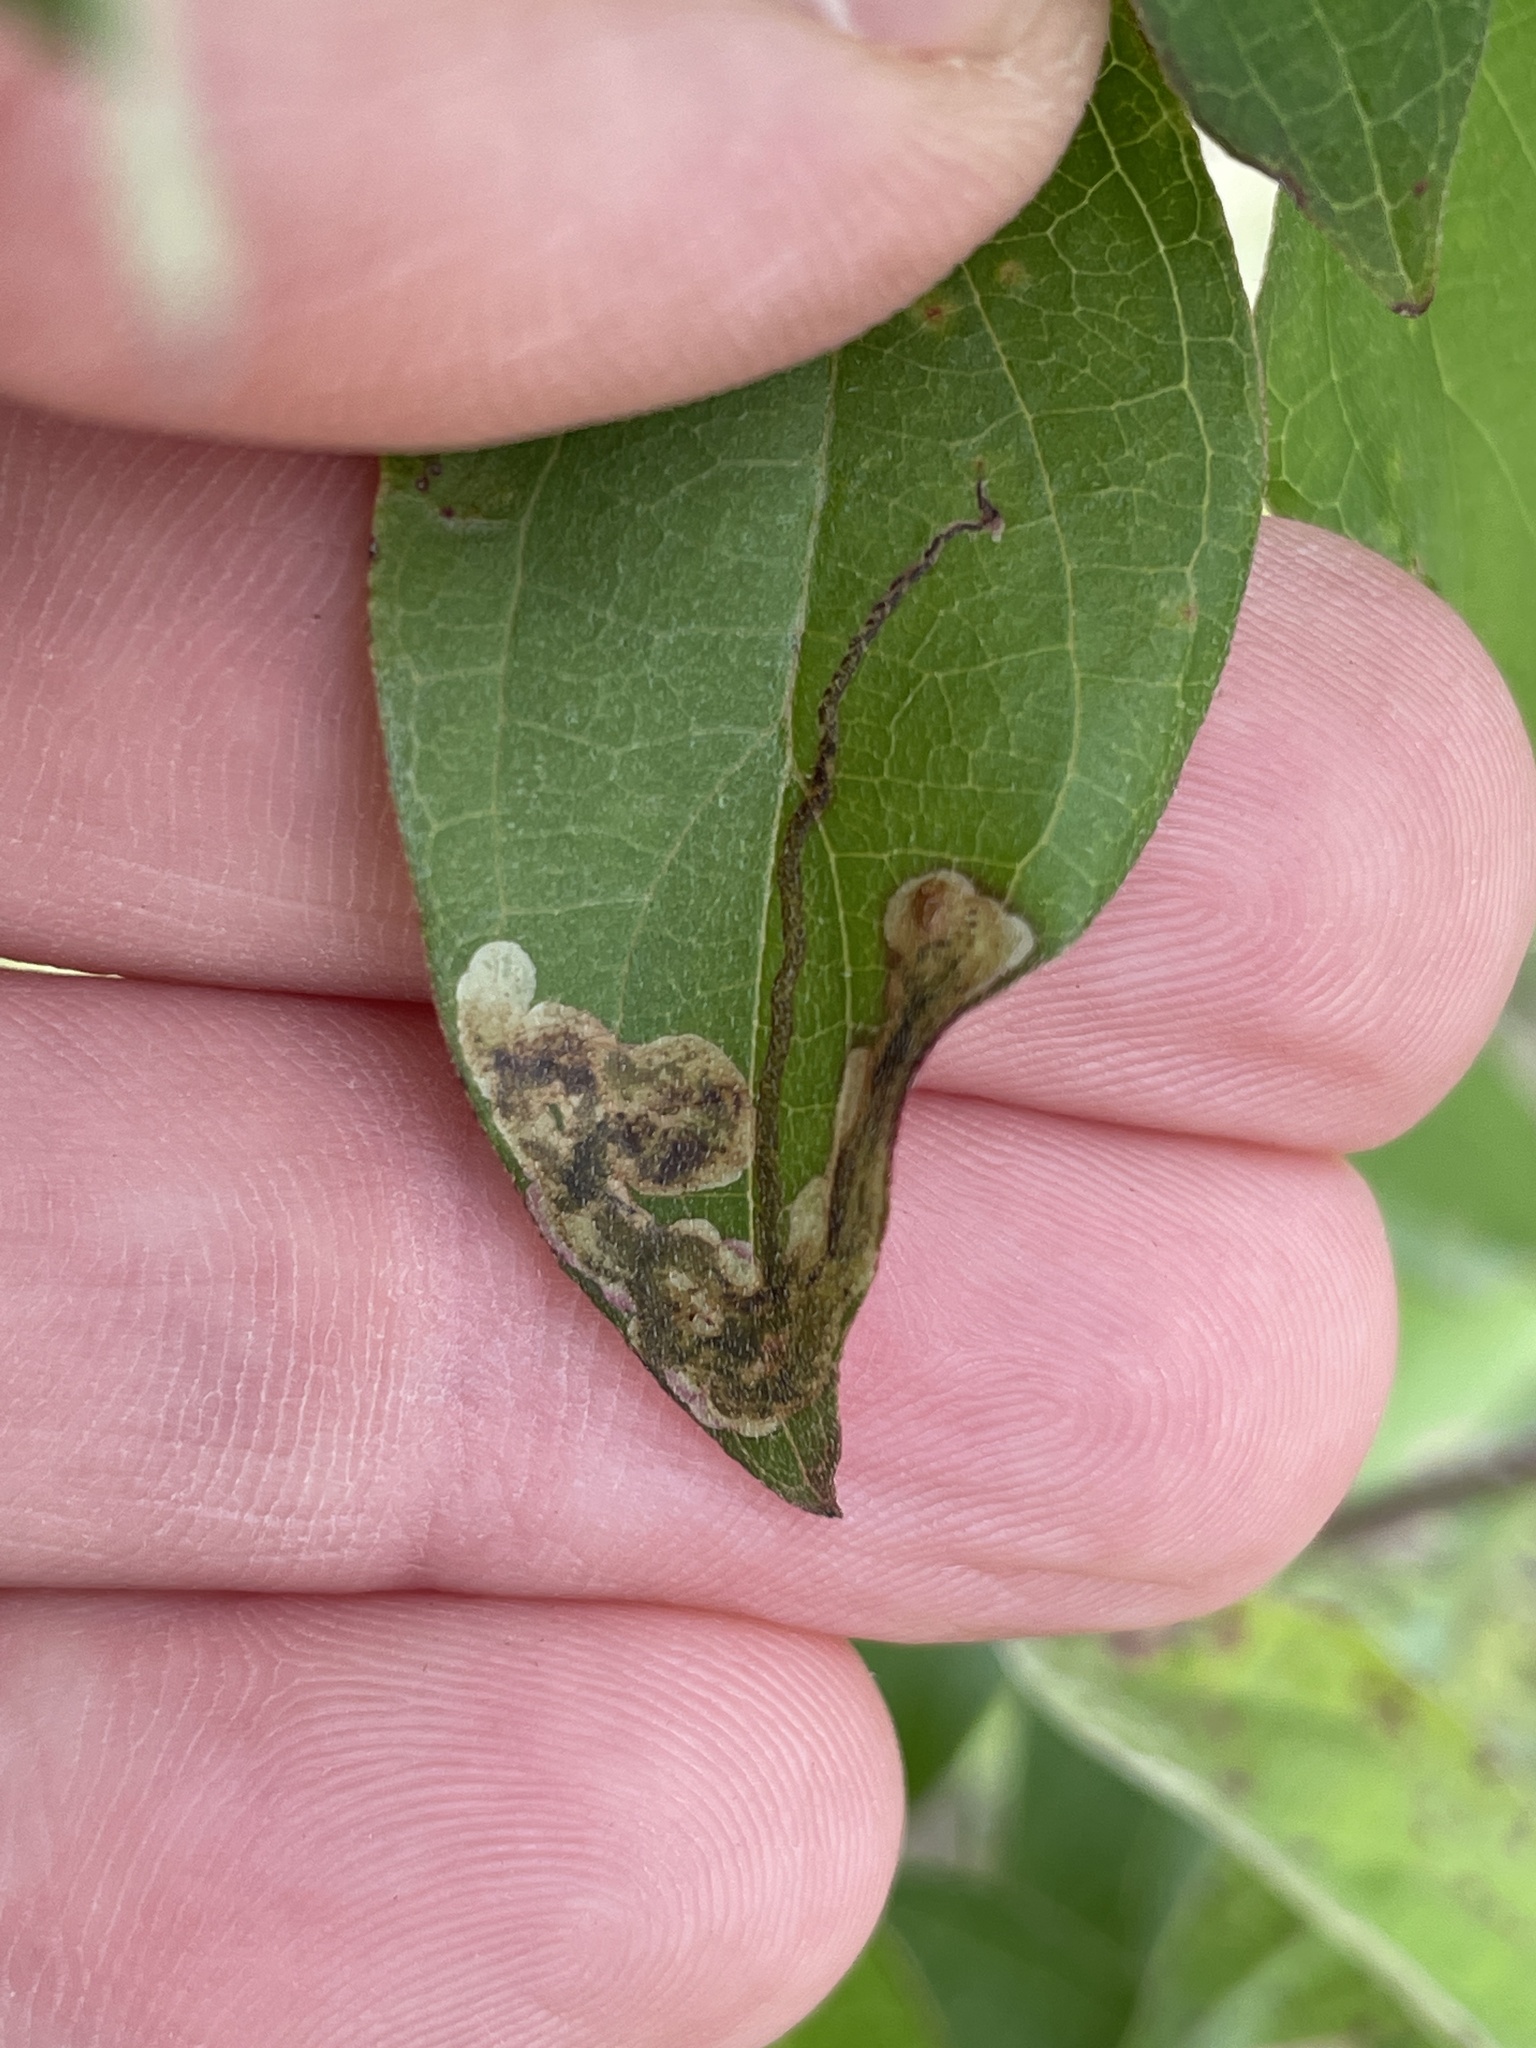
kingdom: Animalia
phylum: Arthropoda
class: Insecta
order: Diptera
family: Agromyzidae
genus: Phytomyza
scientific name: Phytomyza agromyzina
